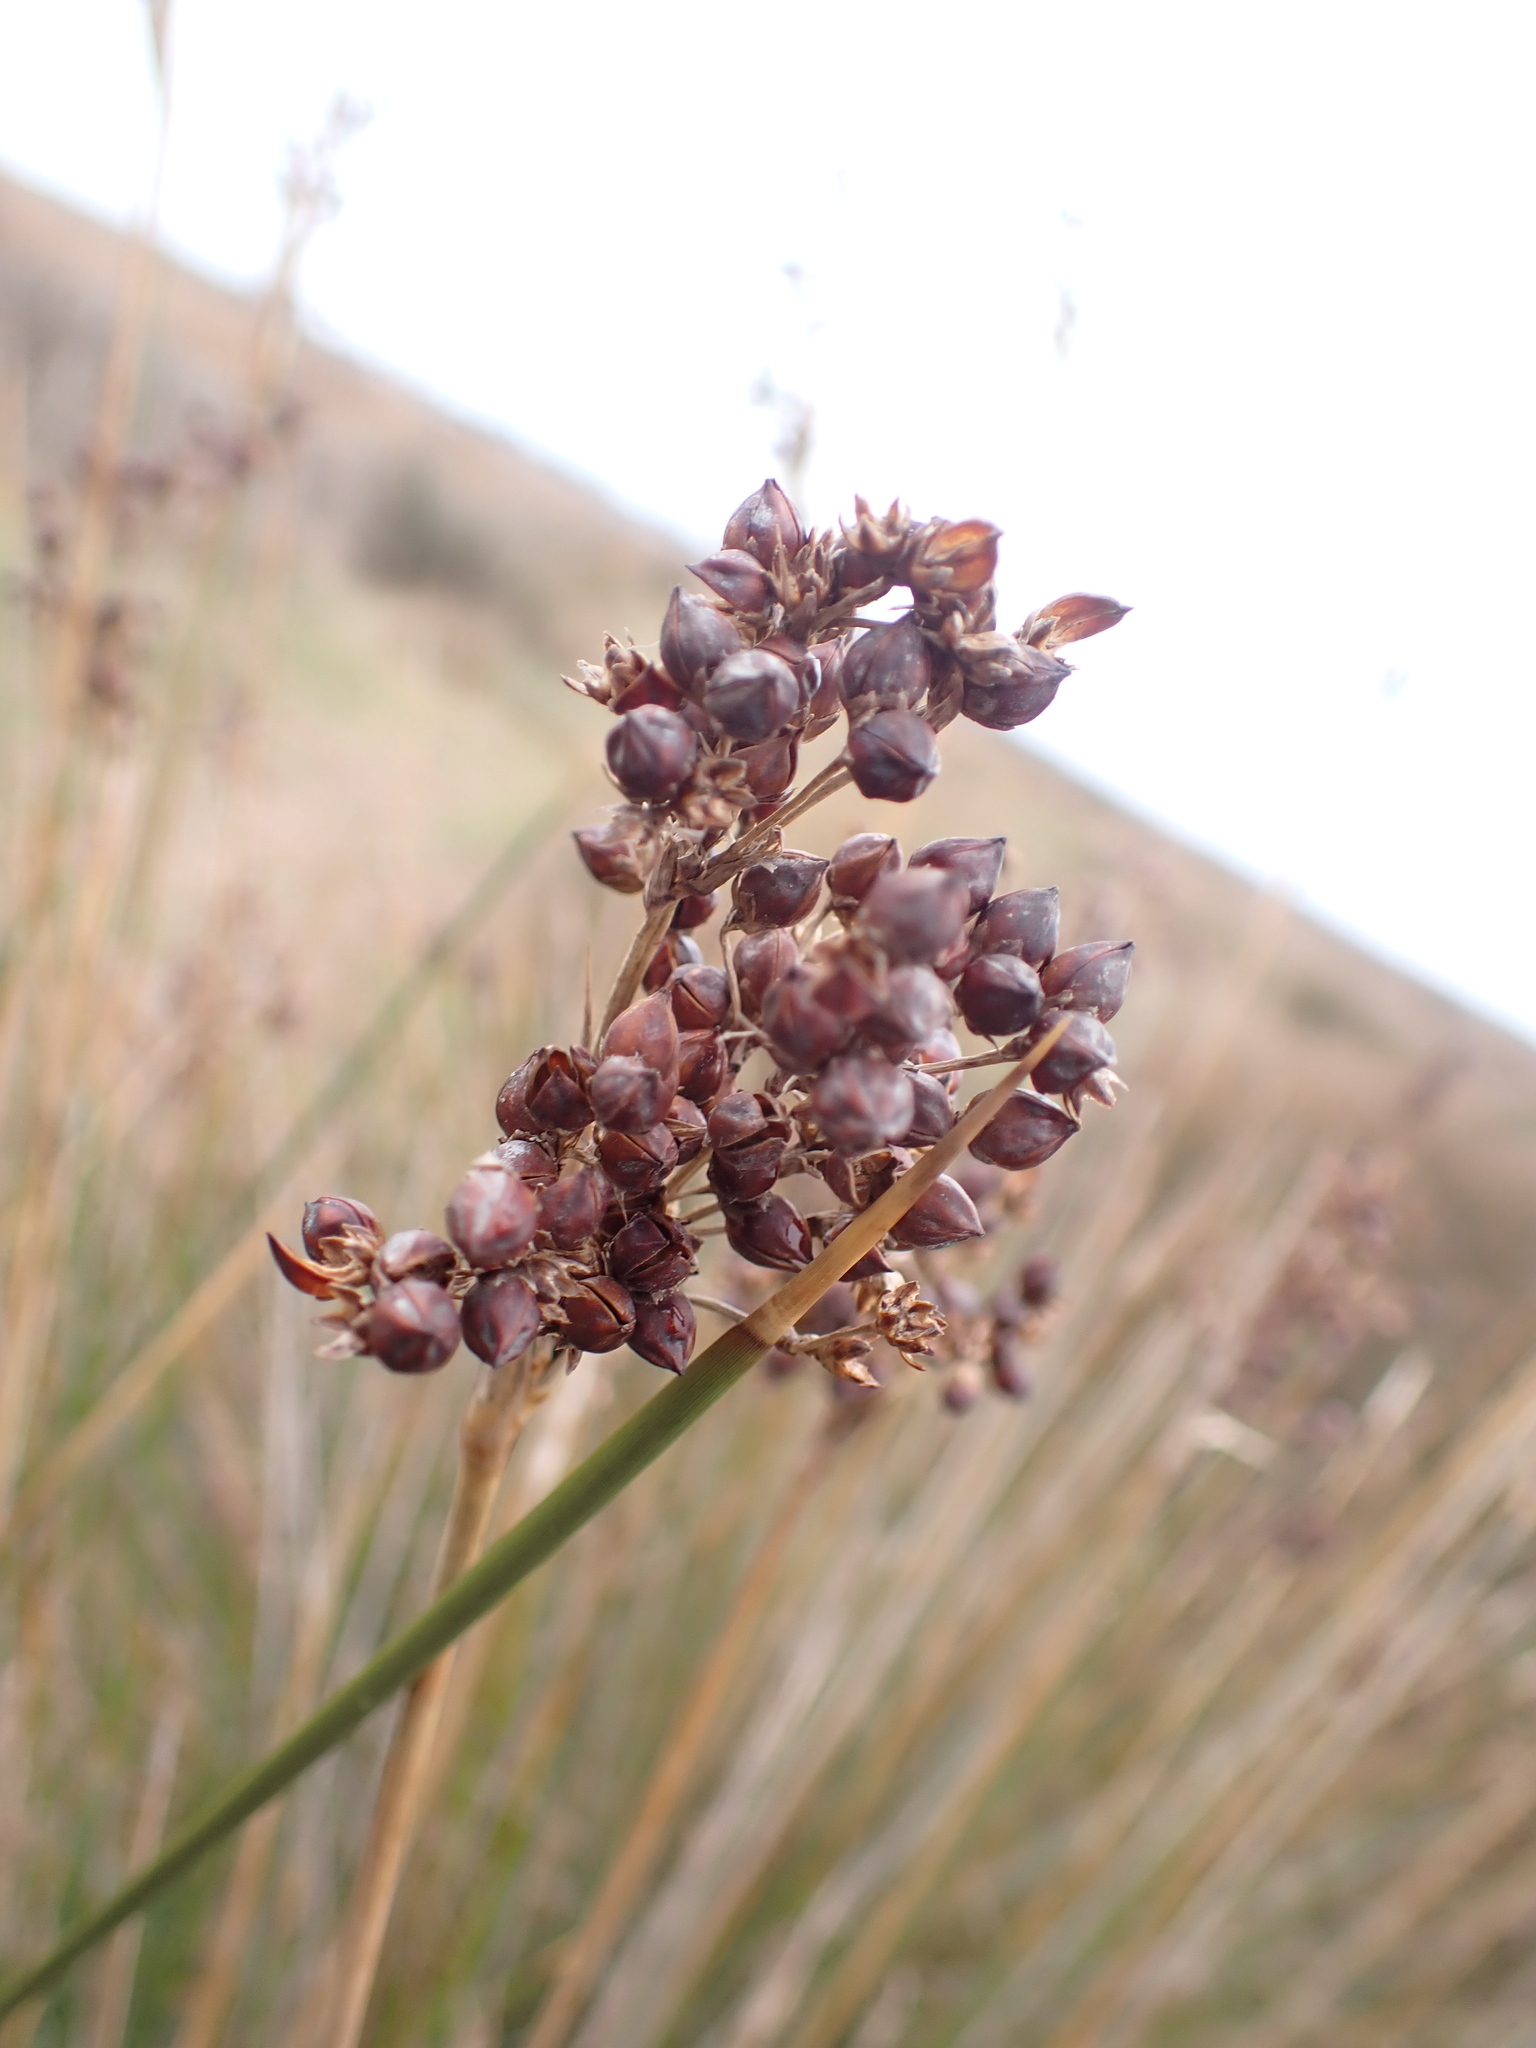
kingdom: Plantae
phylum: Tracheophyta
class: Liliopsida
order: Poales
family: Juncaceae
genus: Juncus
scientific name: Juncus acutus
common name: Sharp rush
